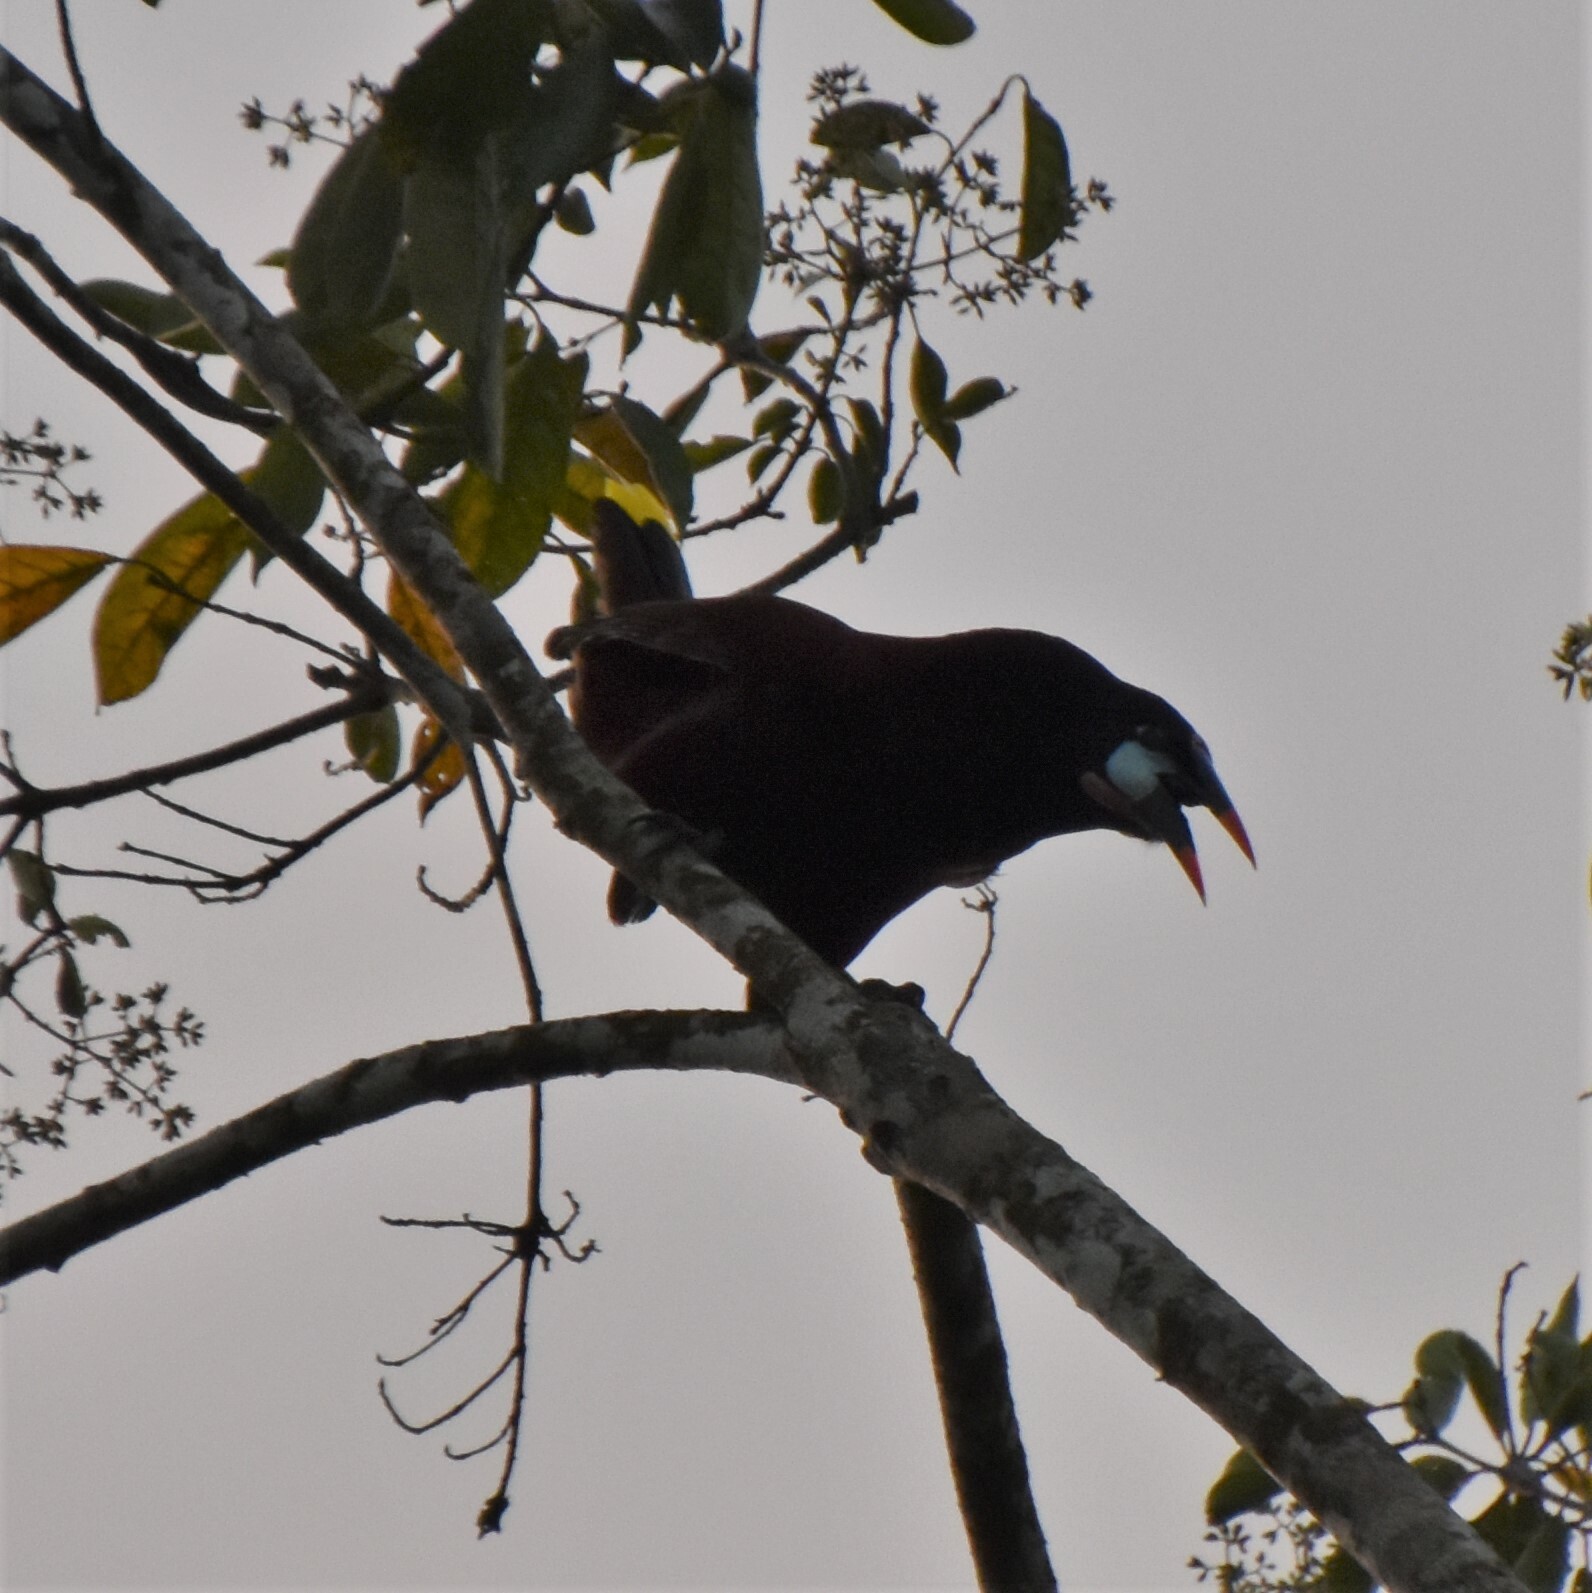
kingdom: Animalia
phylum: Chordata
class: Aves
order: Passeriformes
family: Icteridae
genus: Psarocolius
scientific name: Psarocolius montezuma
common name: Montezuma oropendola
